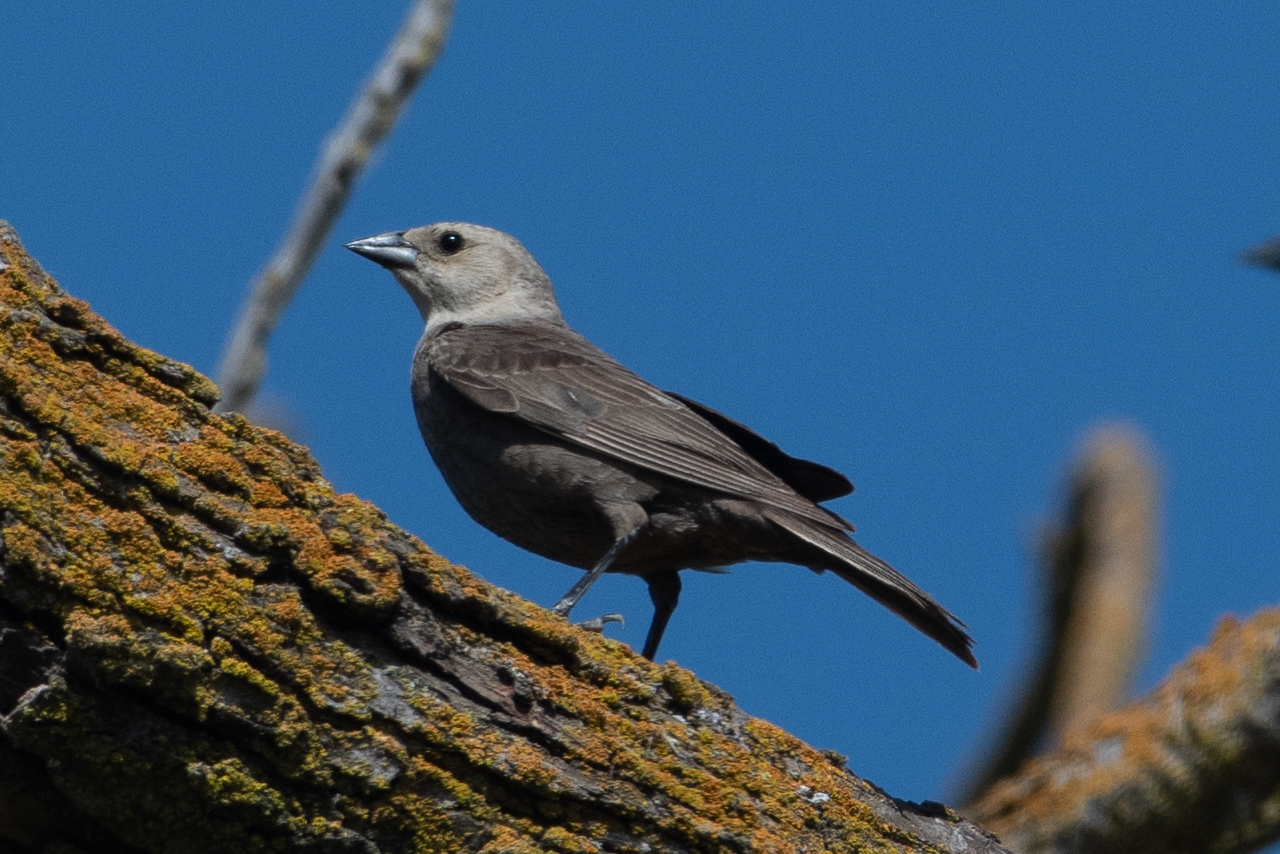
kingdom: Animalia
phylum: Chordata
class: Aves
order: Passeriformes
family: Icteridae
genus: Molothrus
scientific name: Molothrus ater
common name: Brown-headed cowbird
